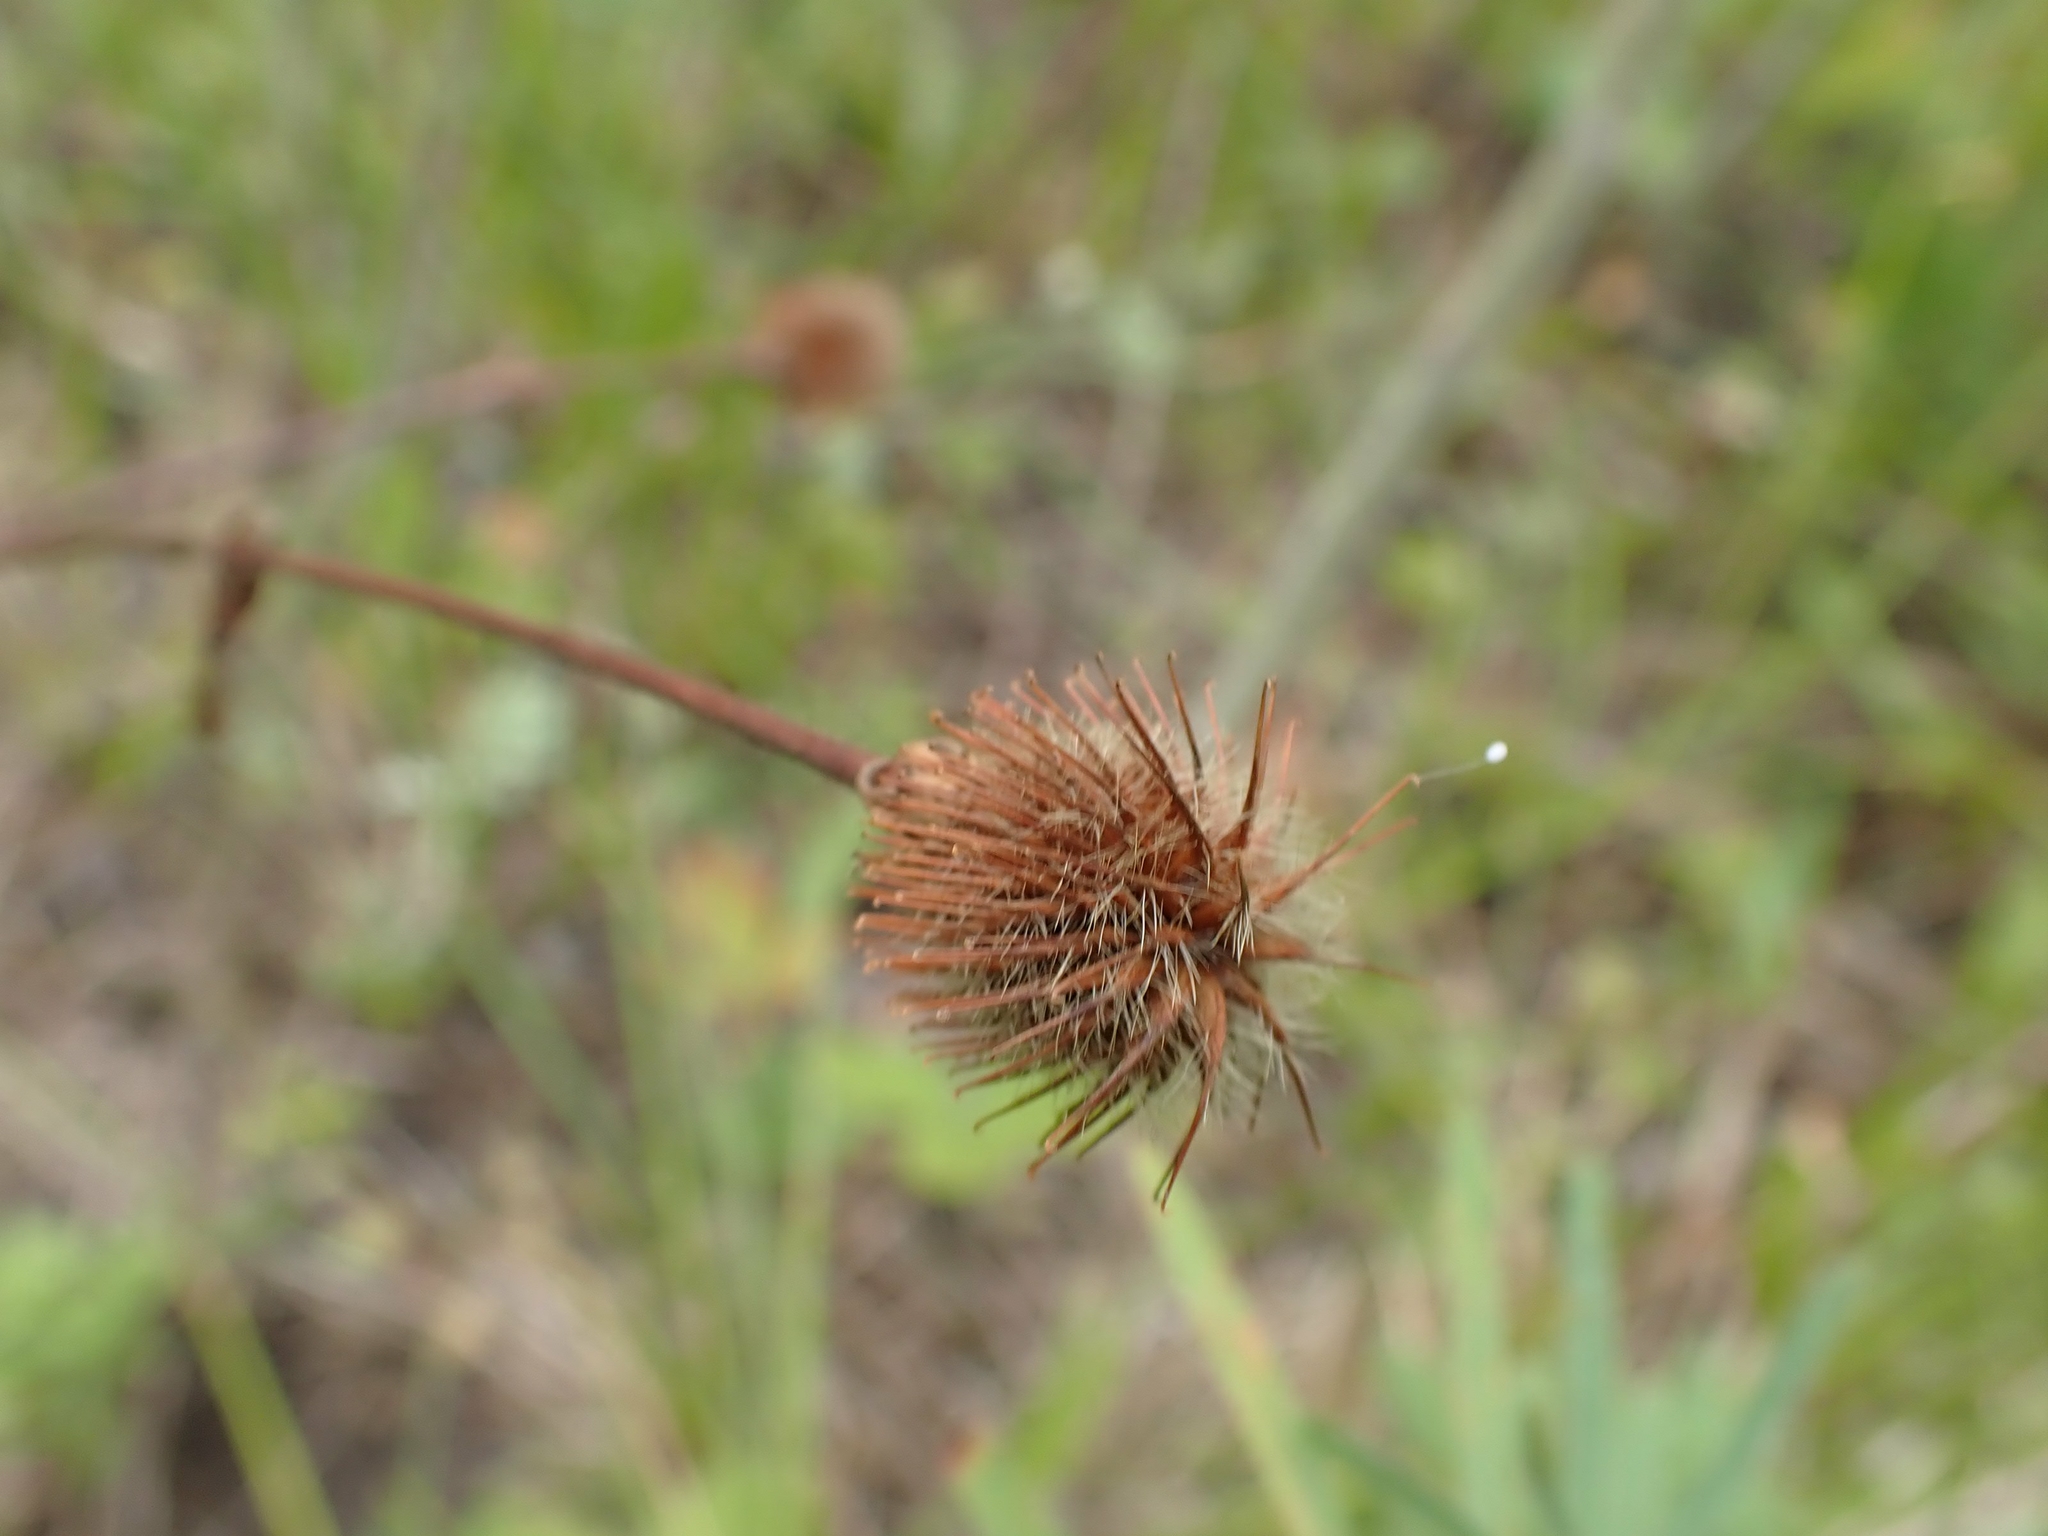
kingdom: Plantae
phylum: Tracheophyta
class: Magnoliopsida
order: Rosales
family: Rosaceae
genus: Geum
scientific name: Geum aleppicum
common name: Yellow avens
